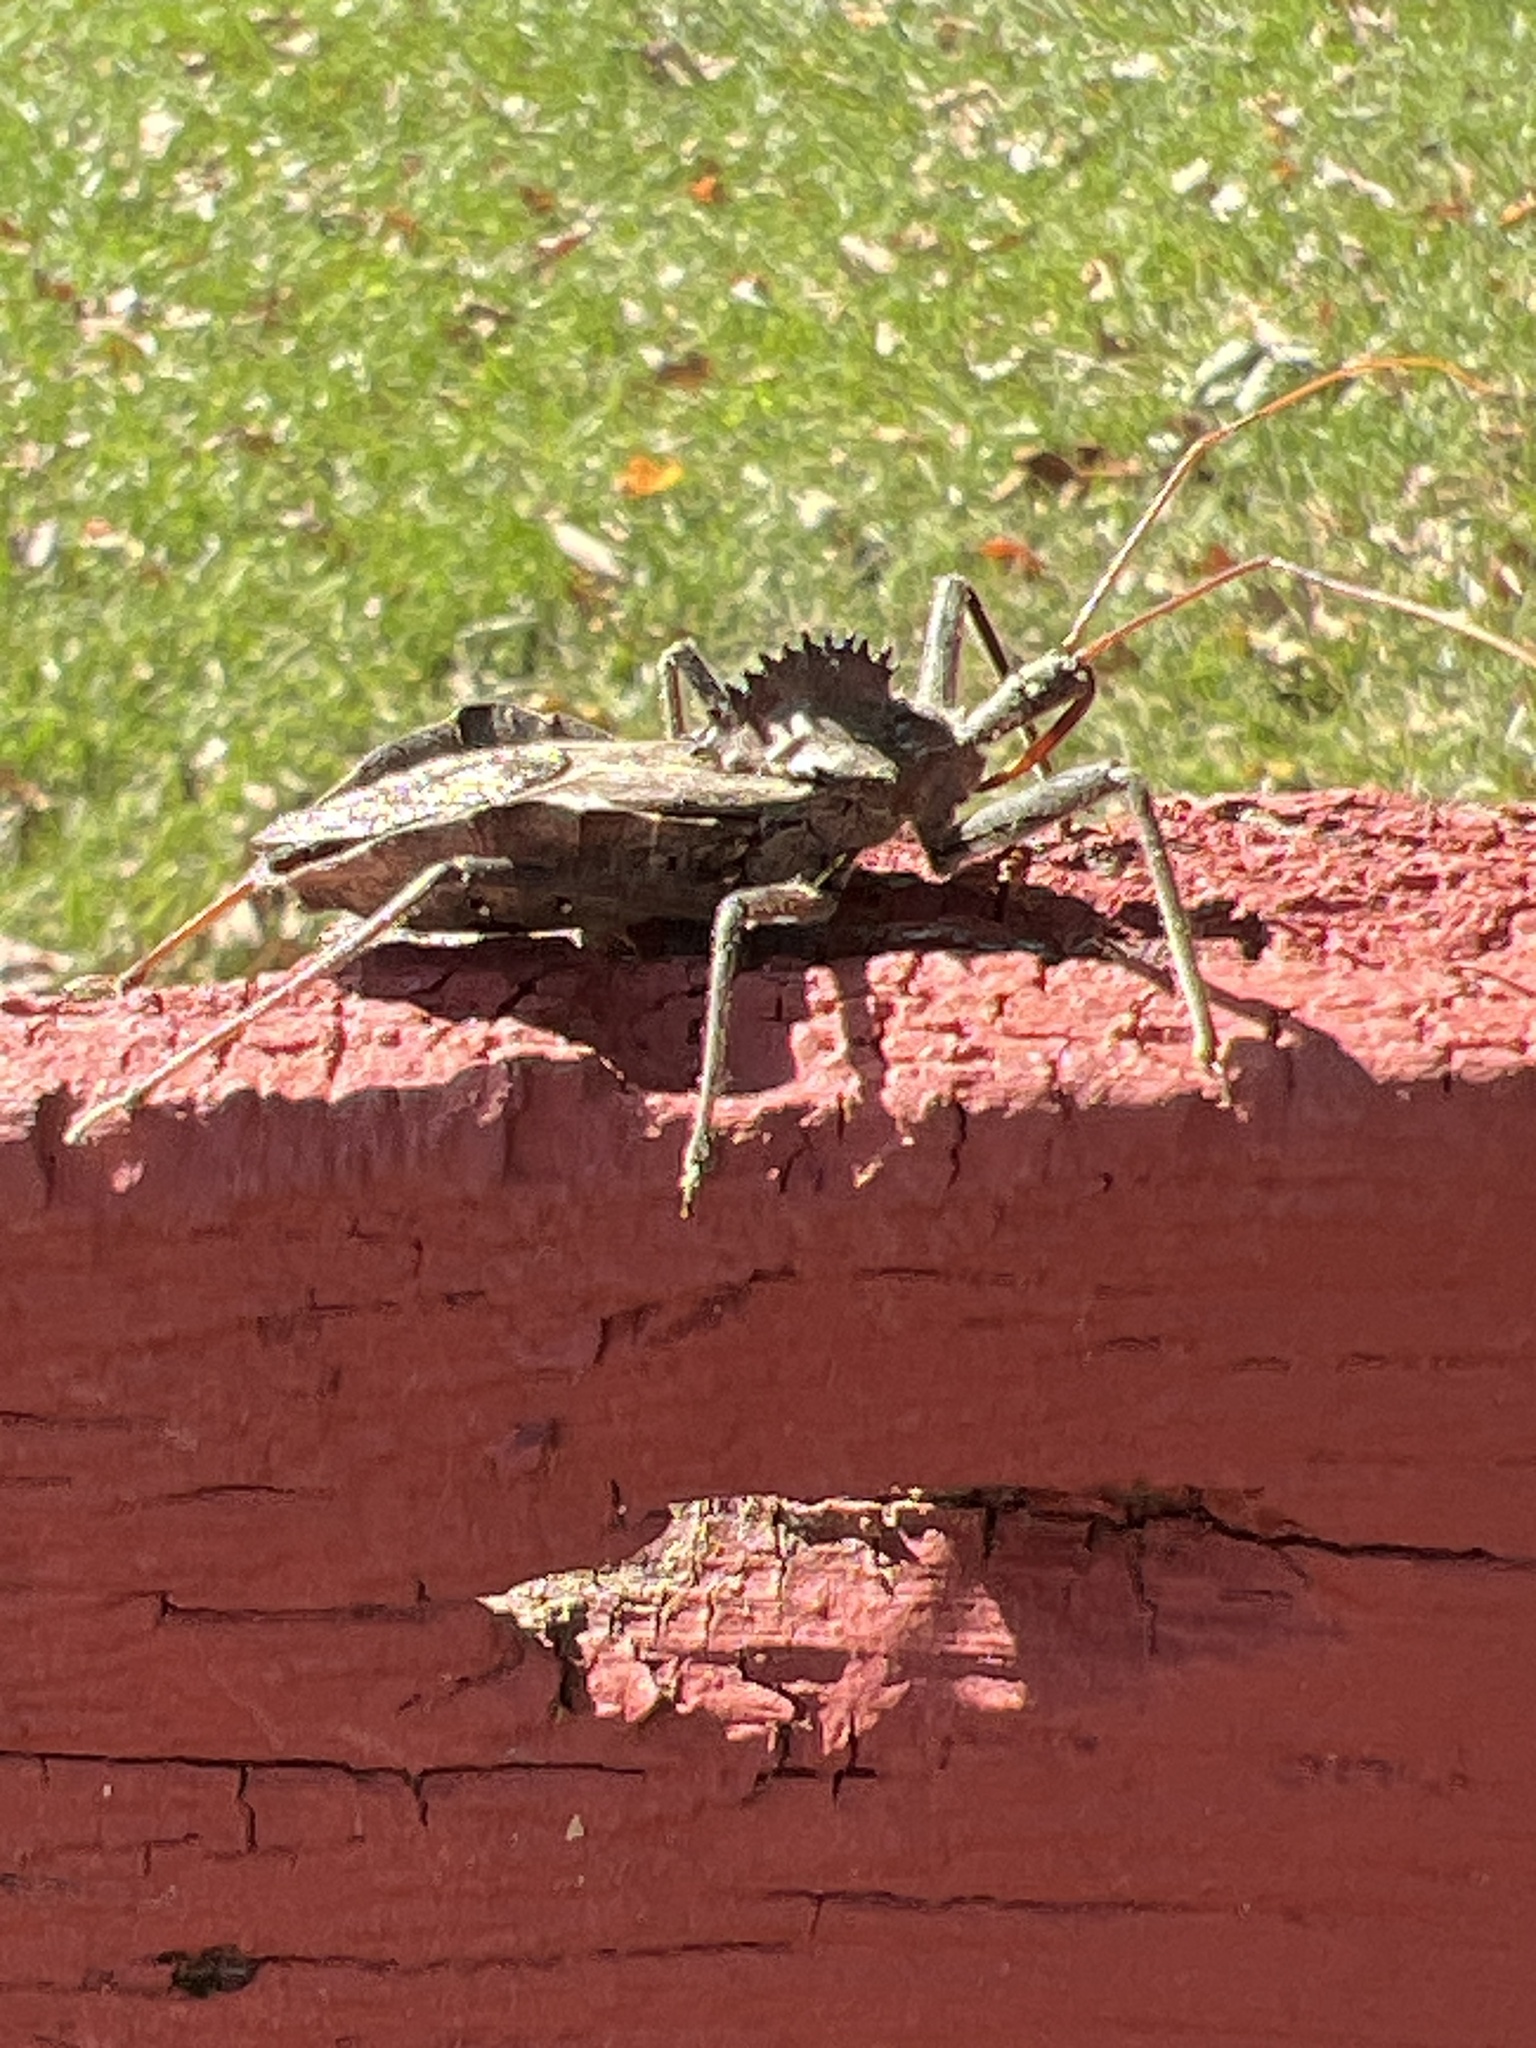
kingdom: Animalia
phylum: Arthropoda
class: Insecta
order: Hemiptera
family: Reduviidae
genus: Arilus
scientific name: Arilus cristatus
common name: North american wheel bug
